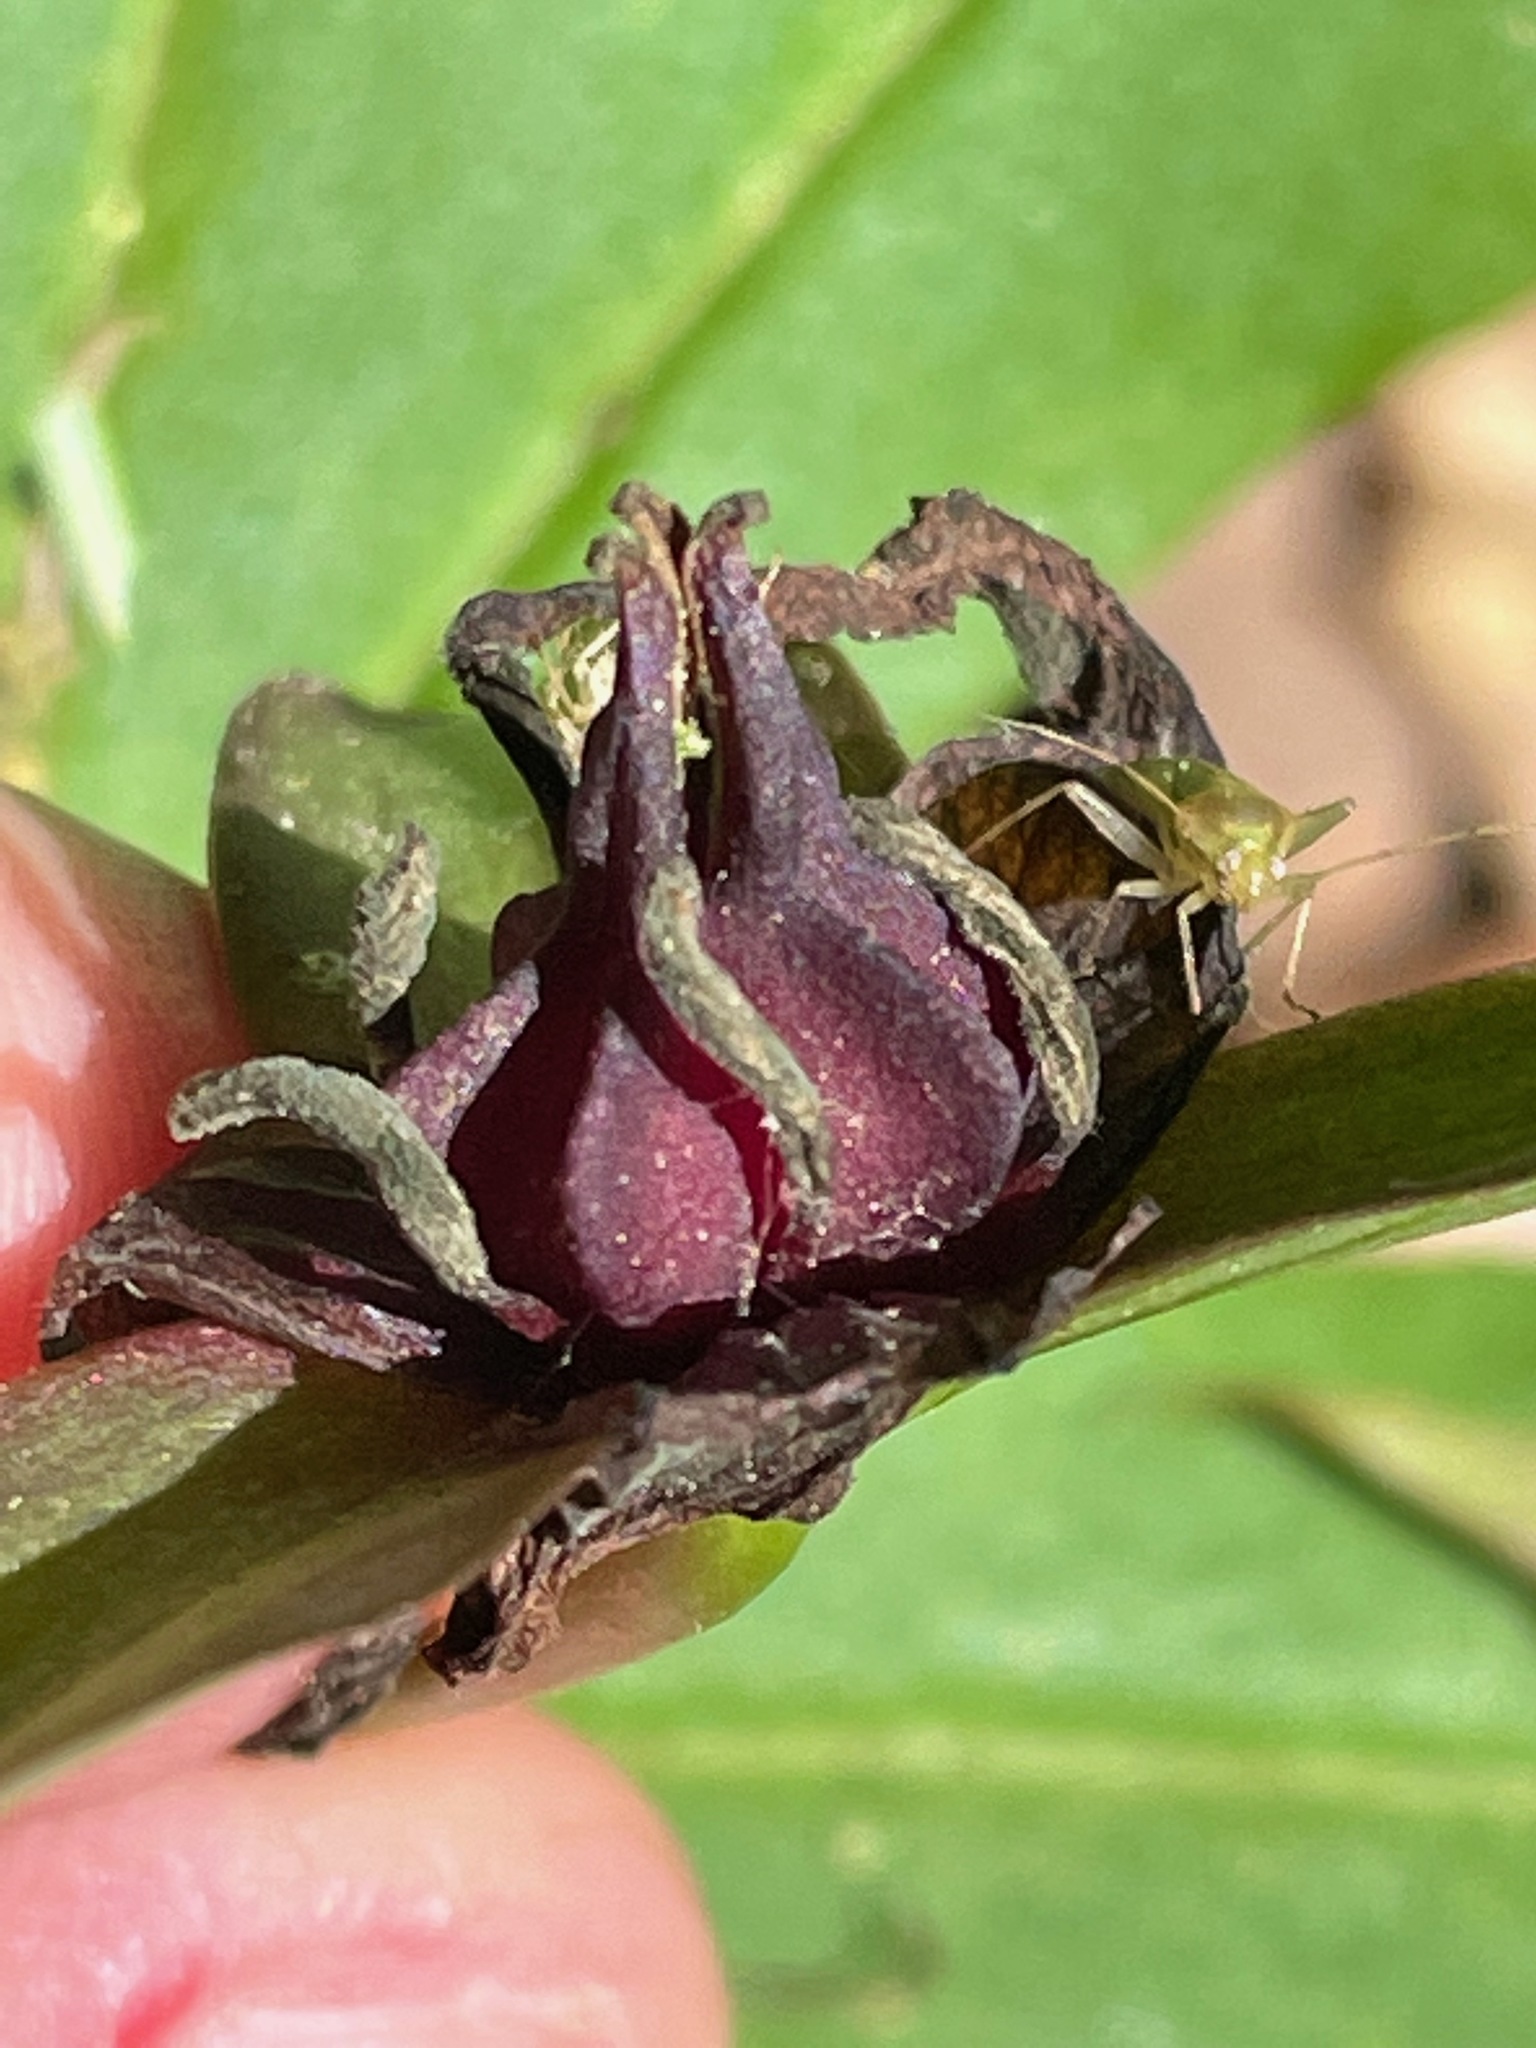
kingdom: Plantae
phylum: Tracheophyta
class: Liliopsida
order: Liliales
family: Melanthiaceae
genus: Trillium
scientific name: Trillium erectum
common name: Purple trillium
